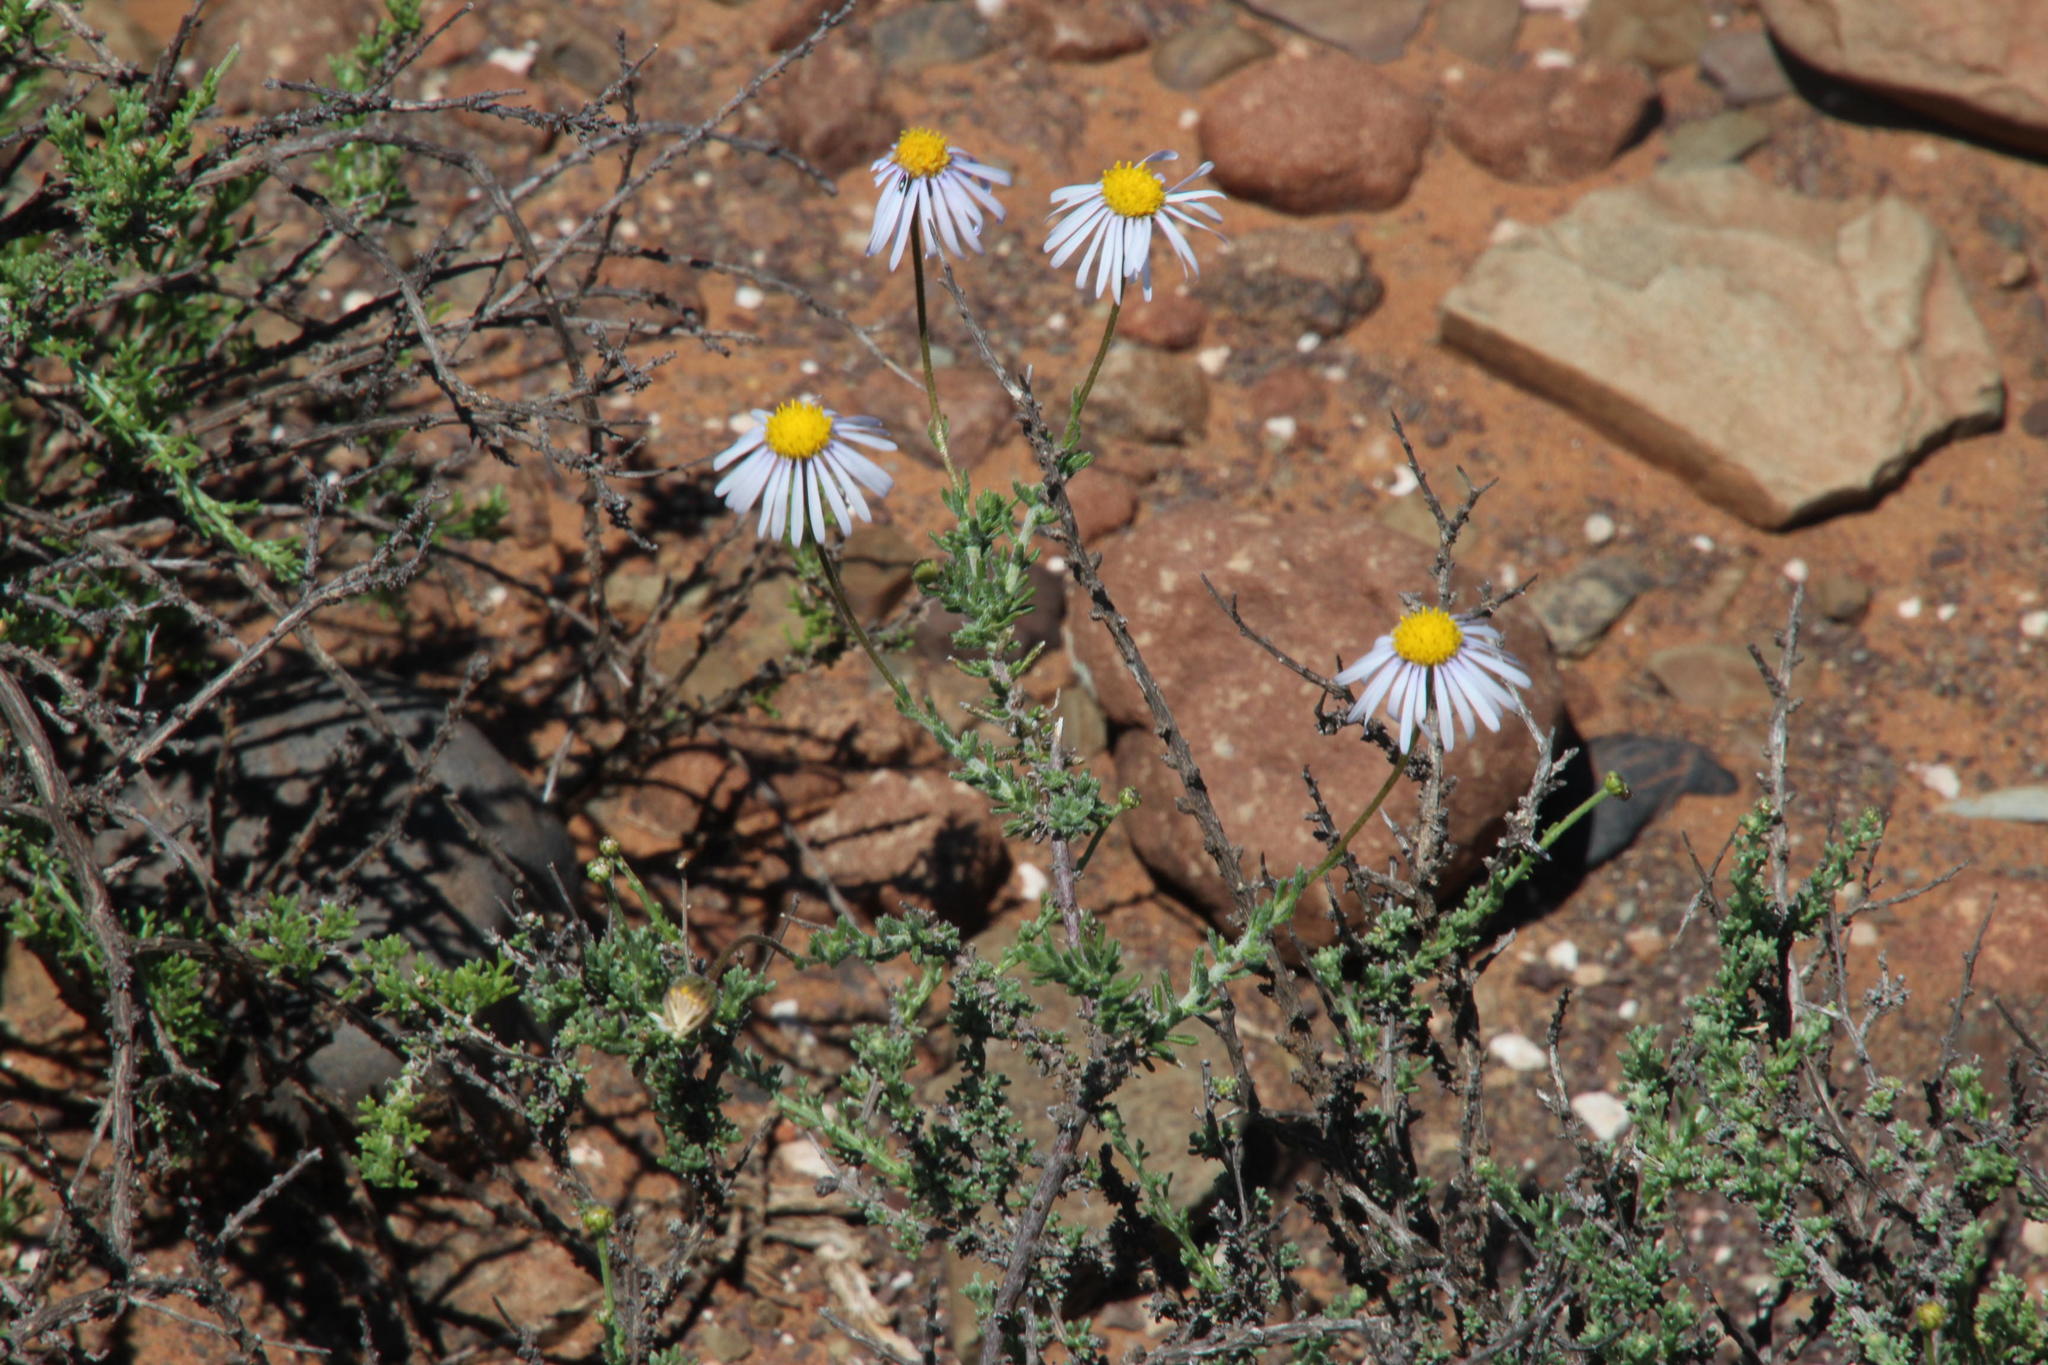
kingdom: Plantae
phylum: Tracheophyta
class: Magnoliopsida
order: Asterales
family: Asteraceae
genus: Felicia
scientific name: Felicia hirsuta
